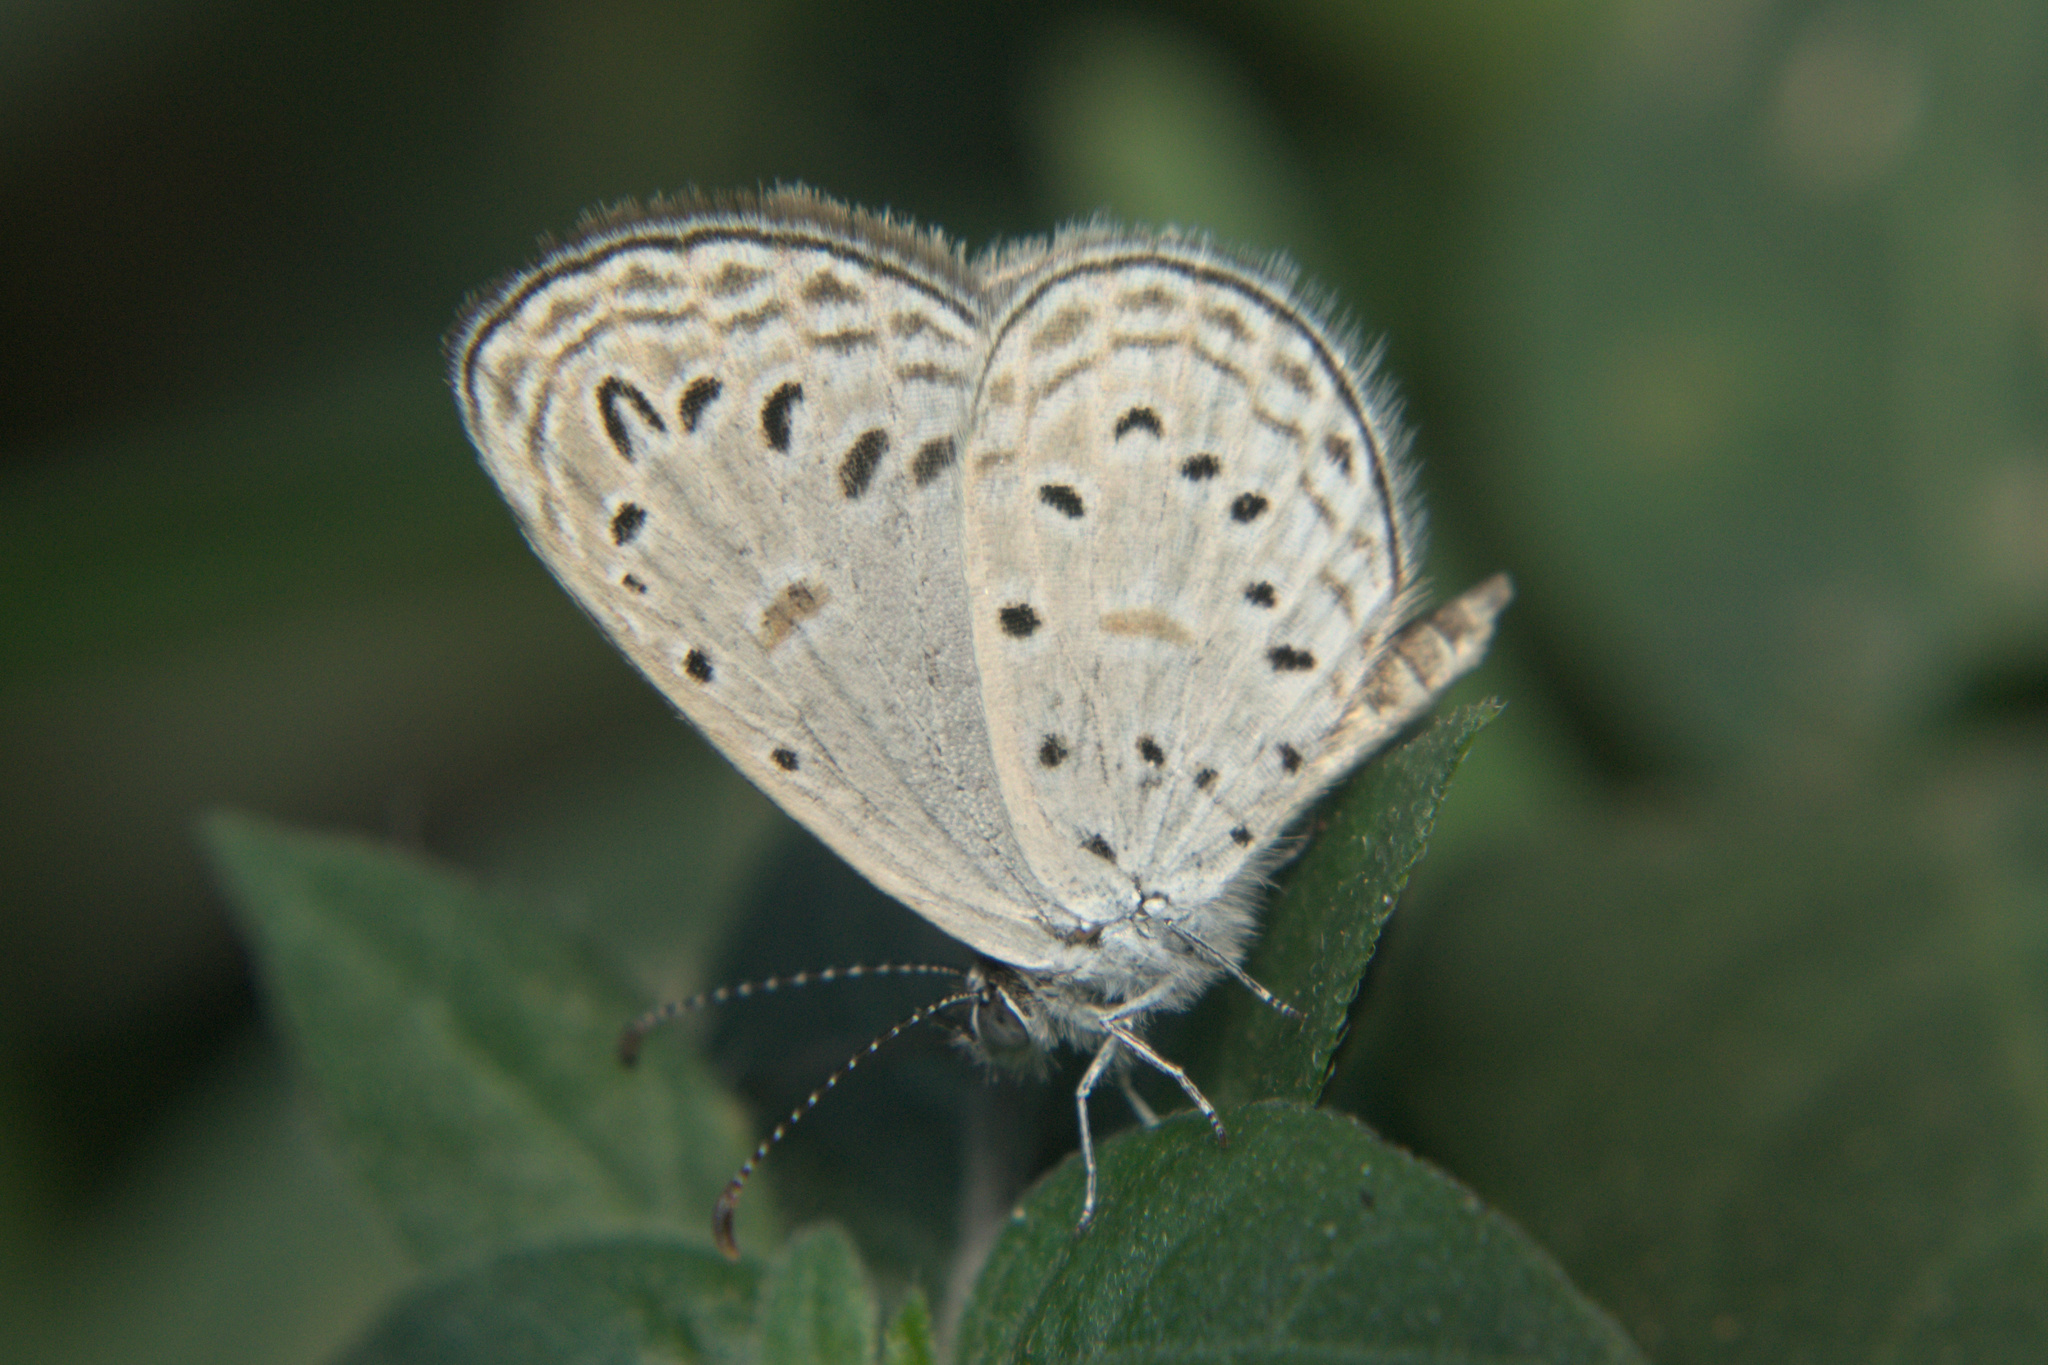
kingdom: Animalia
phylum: Arthropoda
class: Insecta
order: Lepidoptera
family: Lycaenidae
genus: Zizula
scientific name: Zizula hylax
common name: Gaika blue
